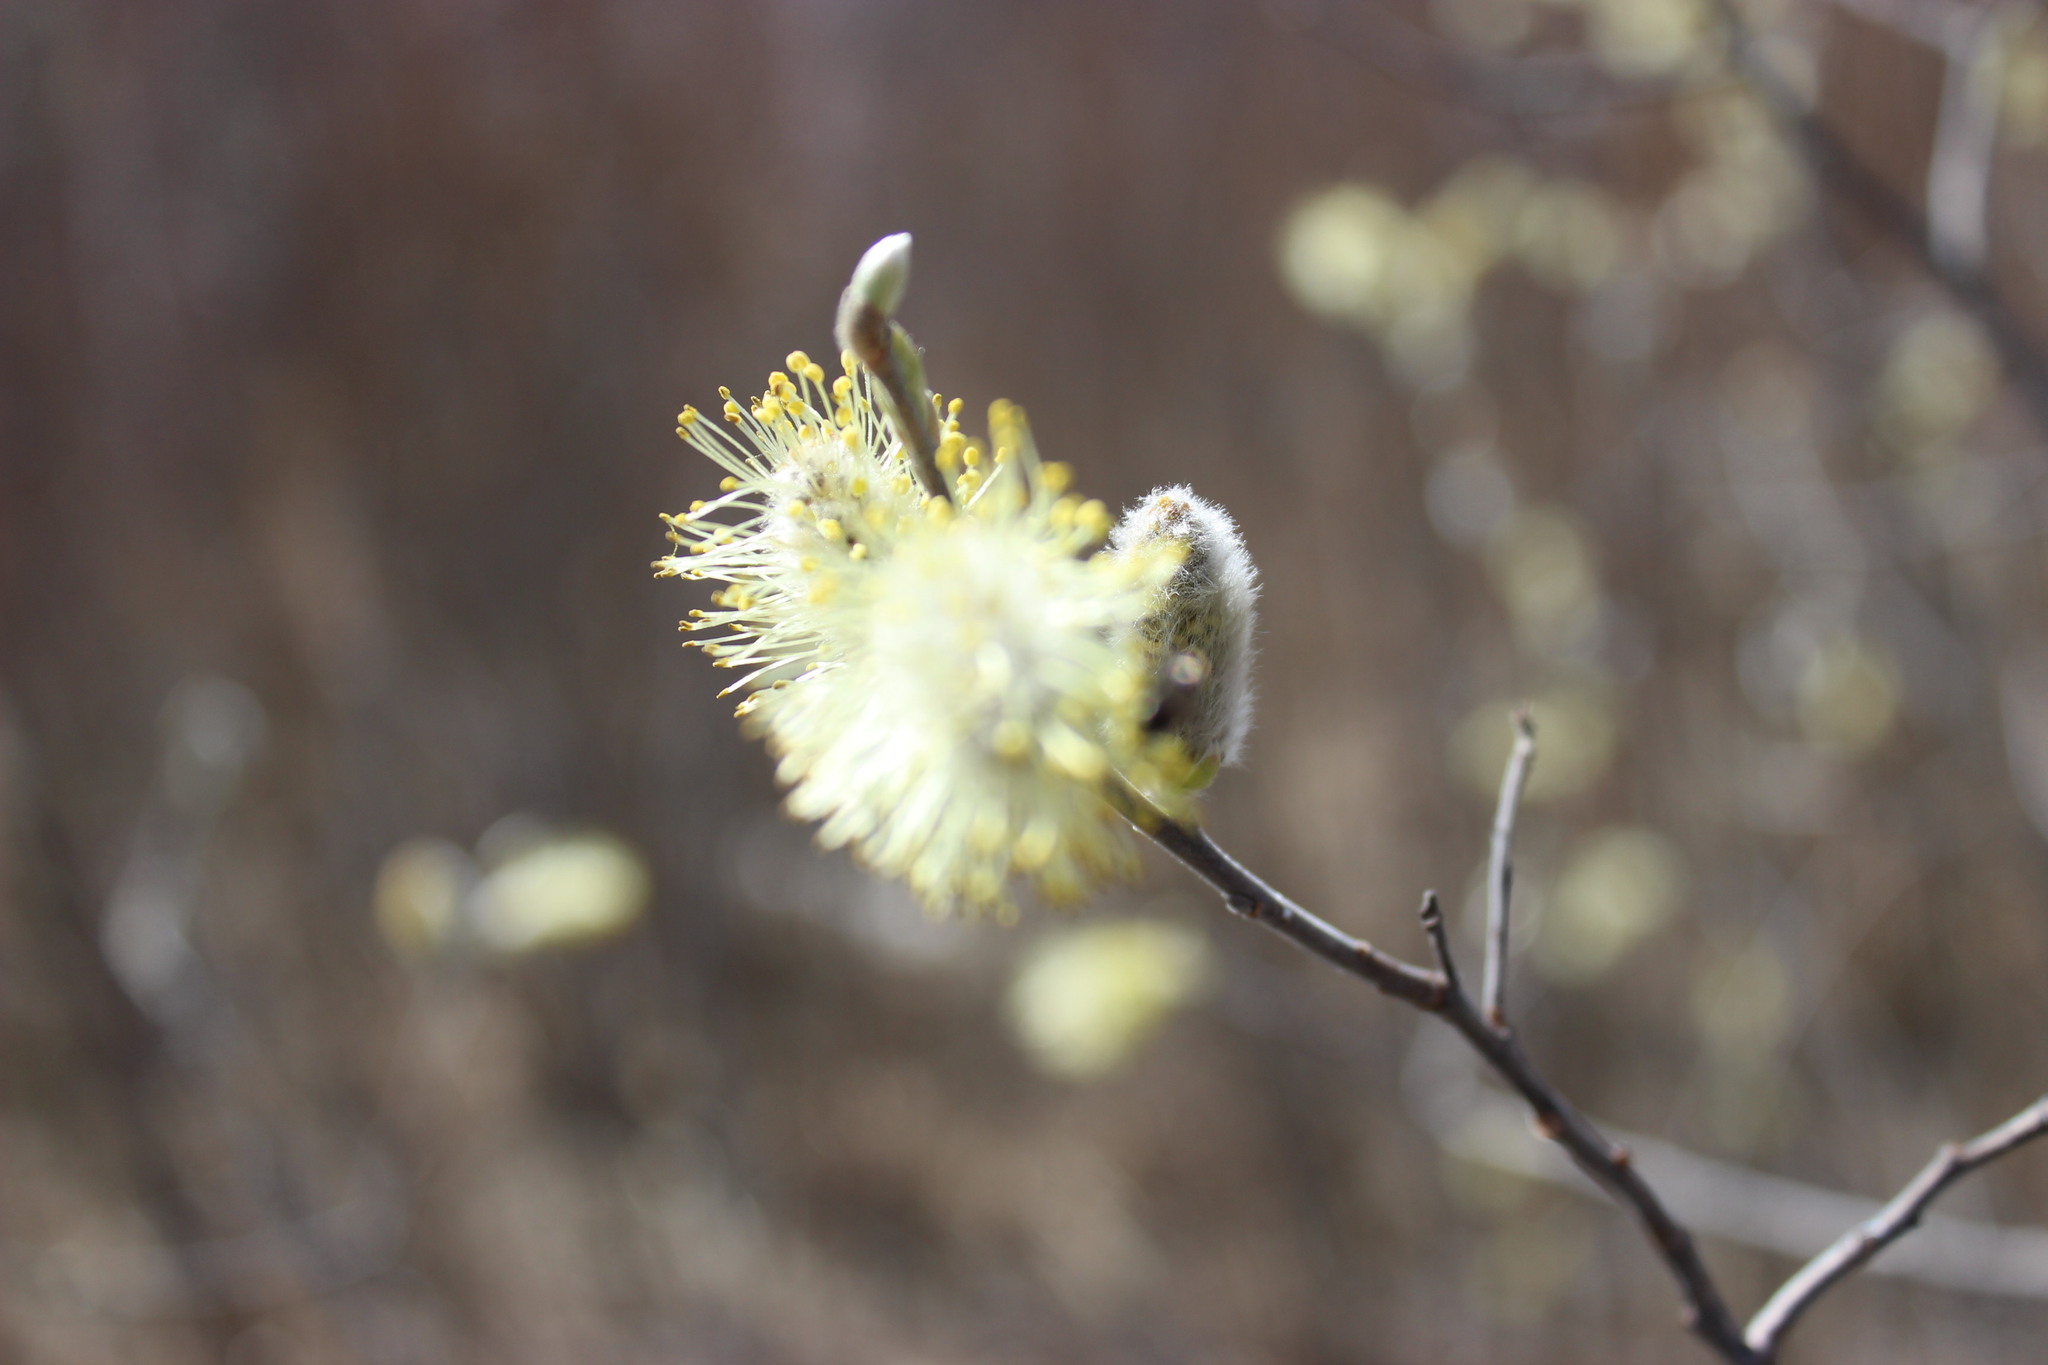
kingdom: Plantae
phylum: Tracheophyta
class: Magnoliopsida
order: Malpighiales
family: Salicaceae
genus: Salix
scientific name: Salix caprea
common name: Goat willow
